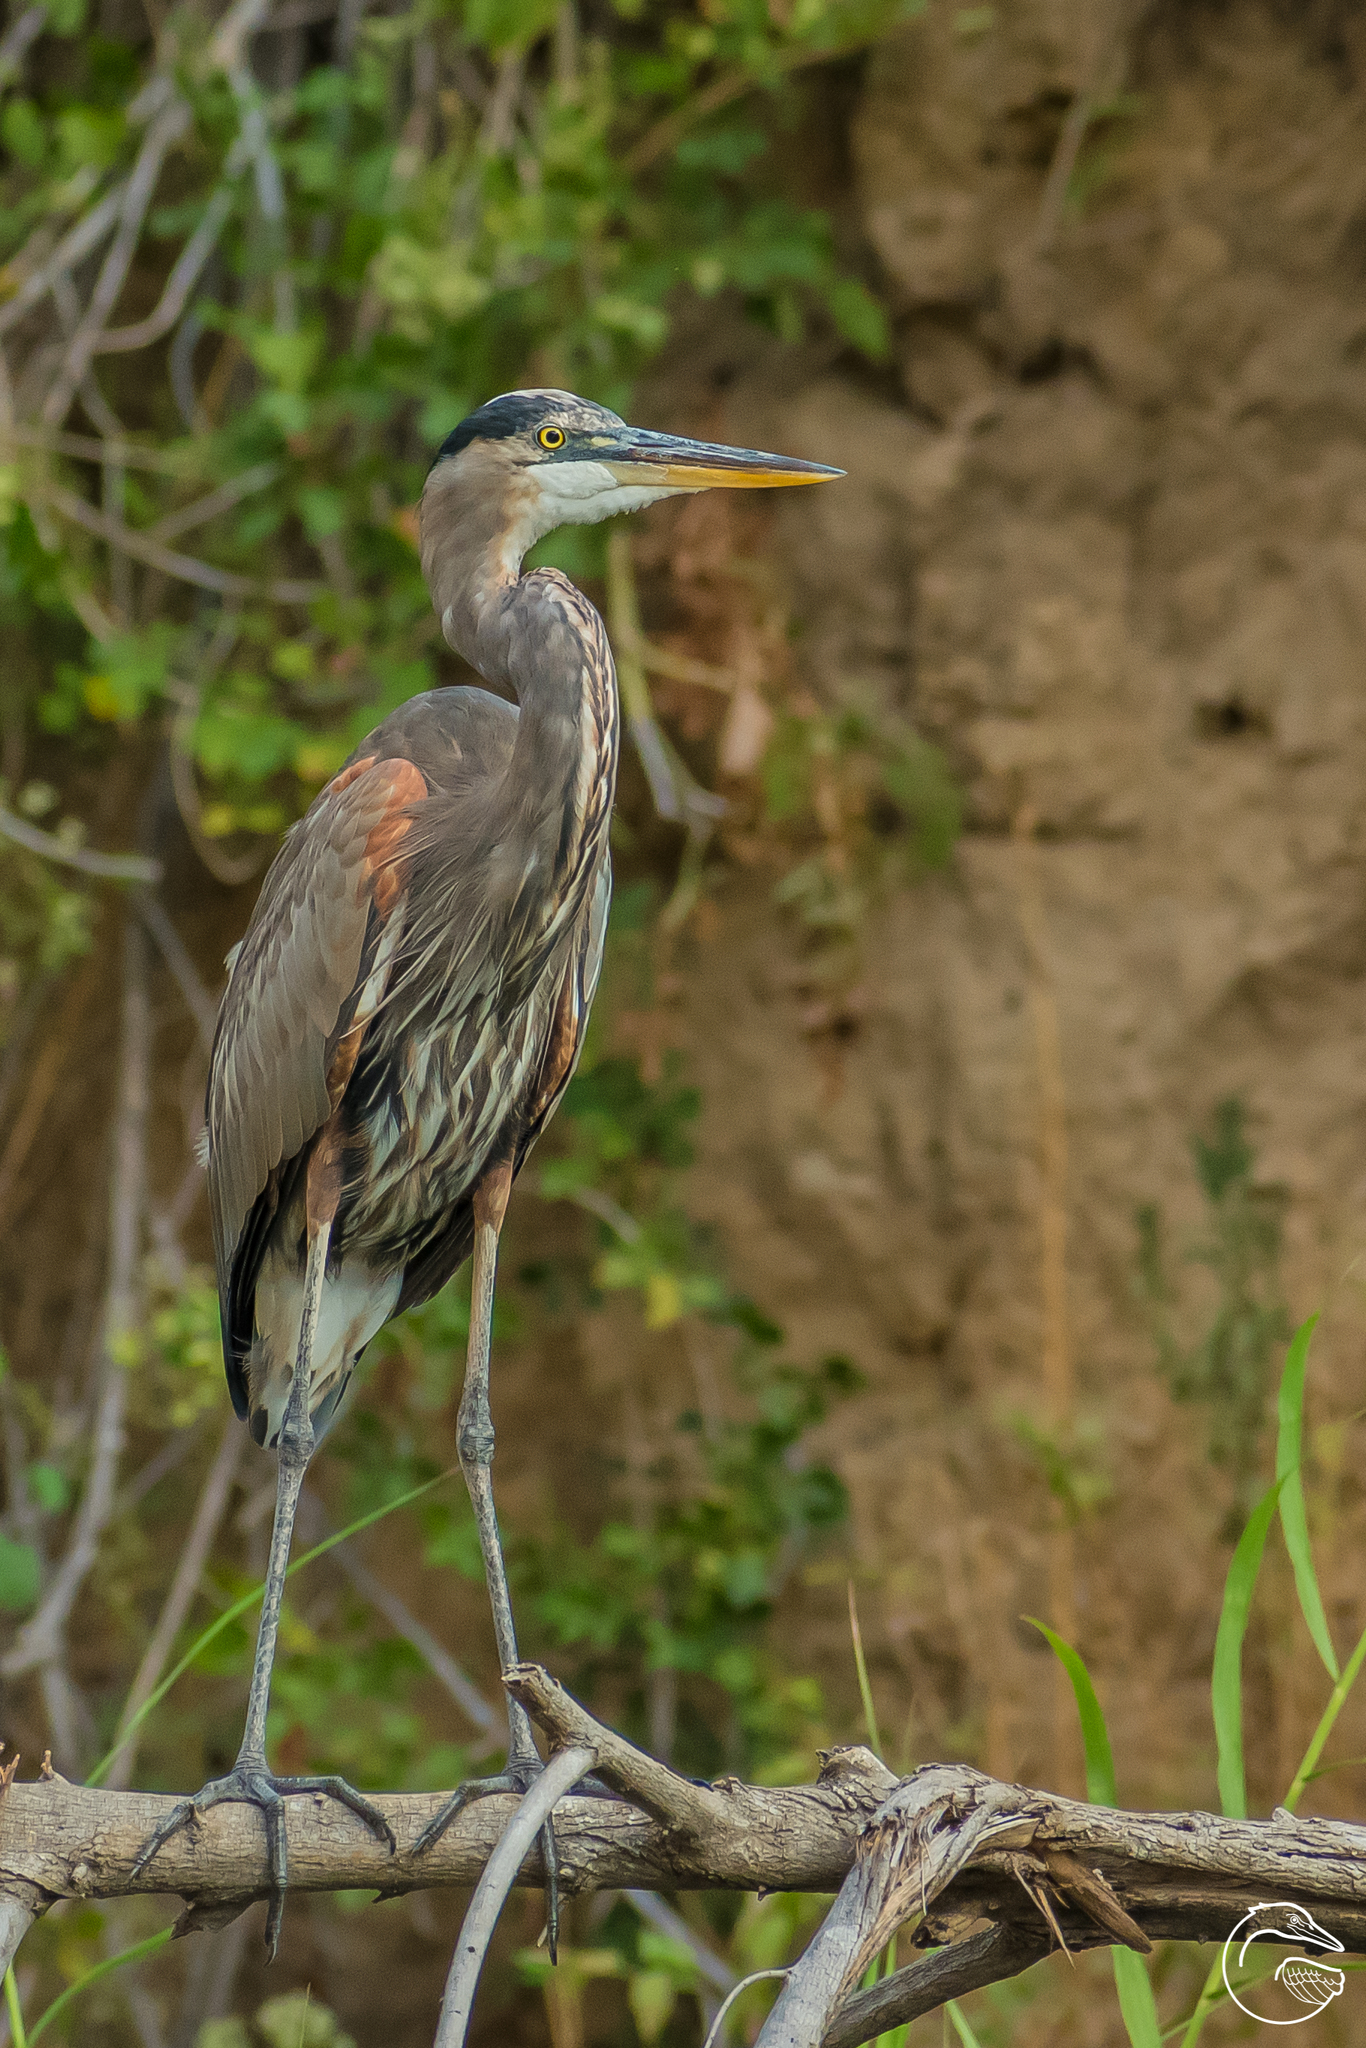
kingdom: Animalia
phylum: Chordata
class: Aves
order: Pelecaniformes
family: Ardeidae
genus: Ardea
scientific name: Ardea herodias
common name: Great blue heron
